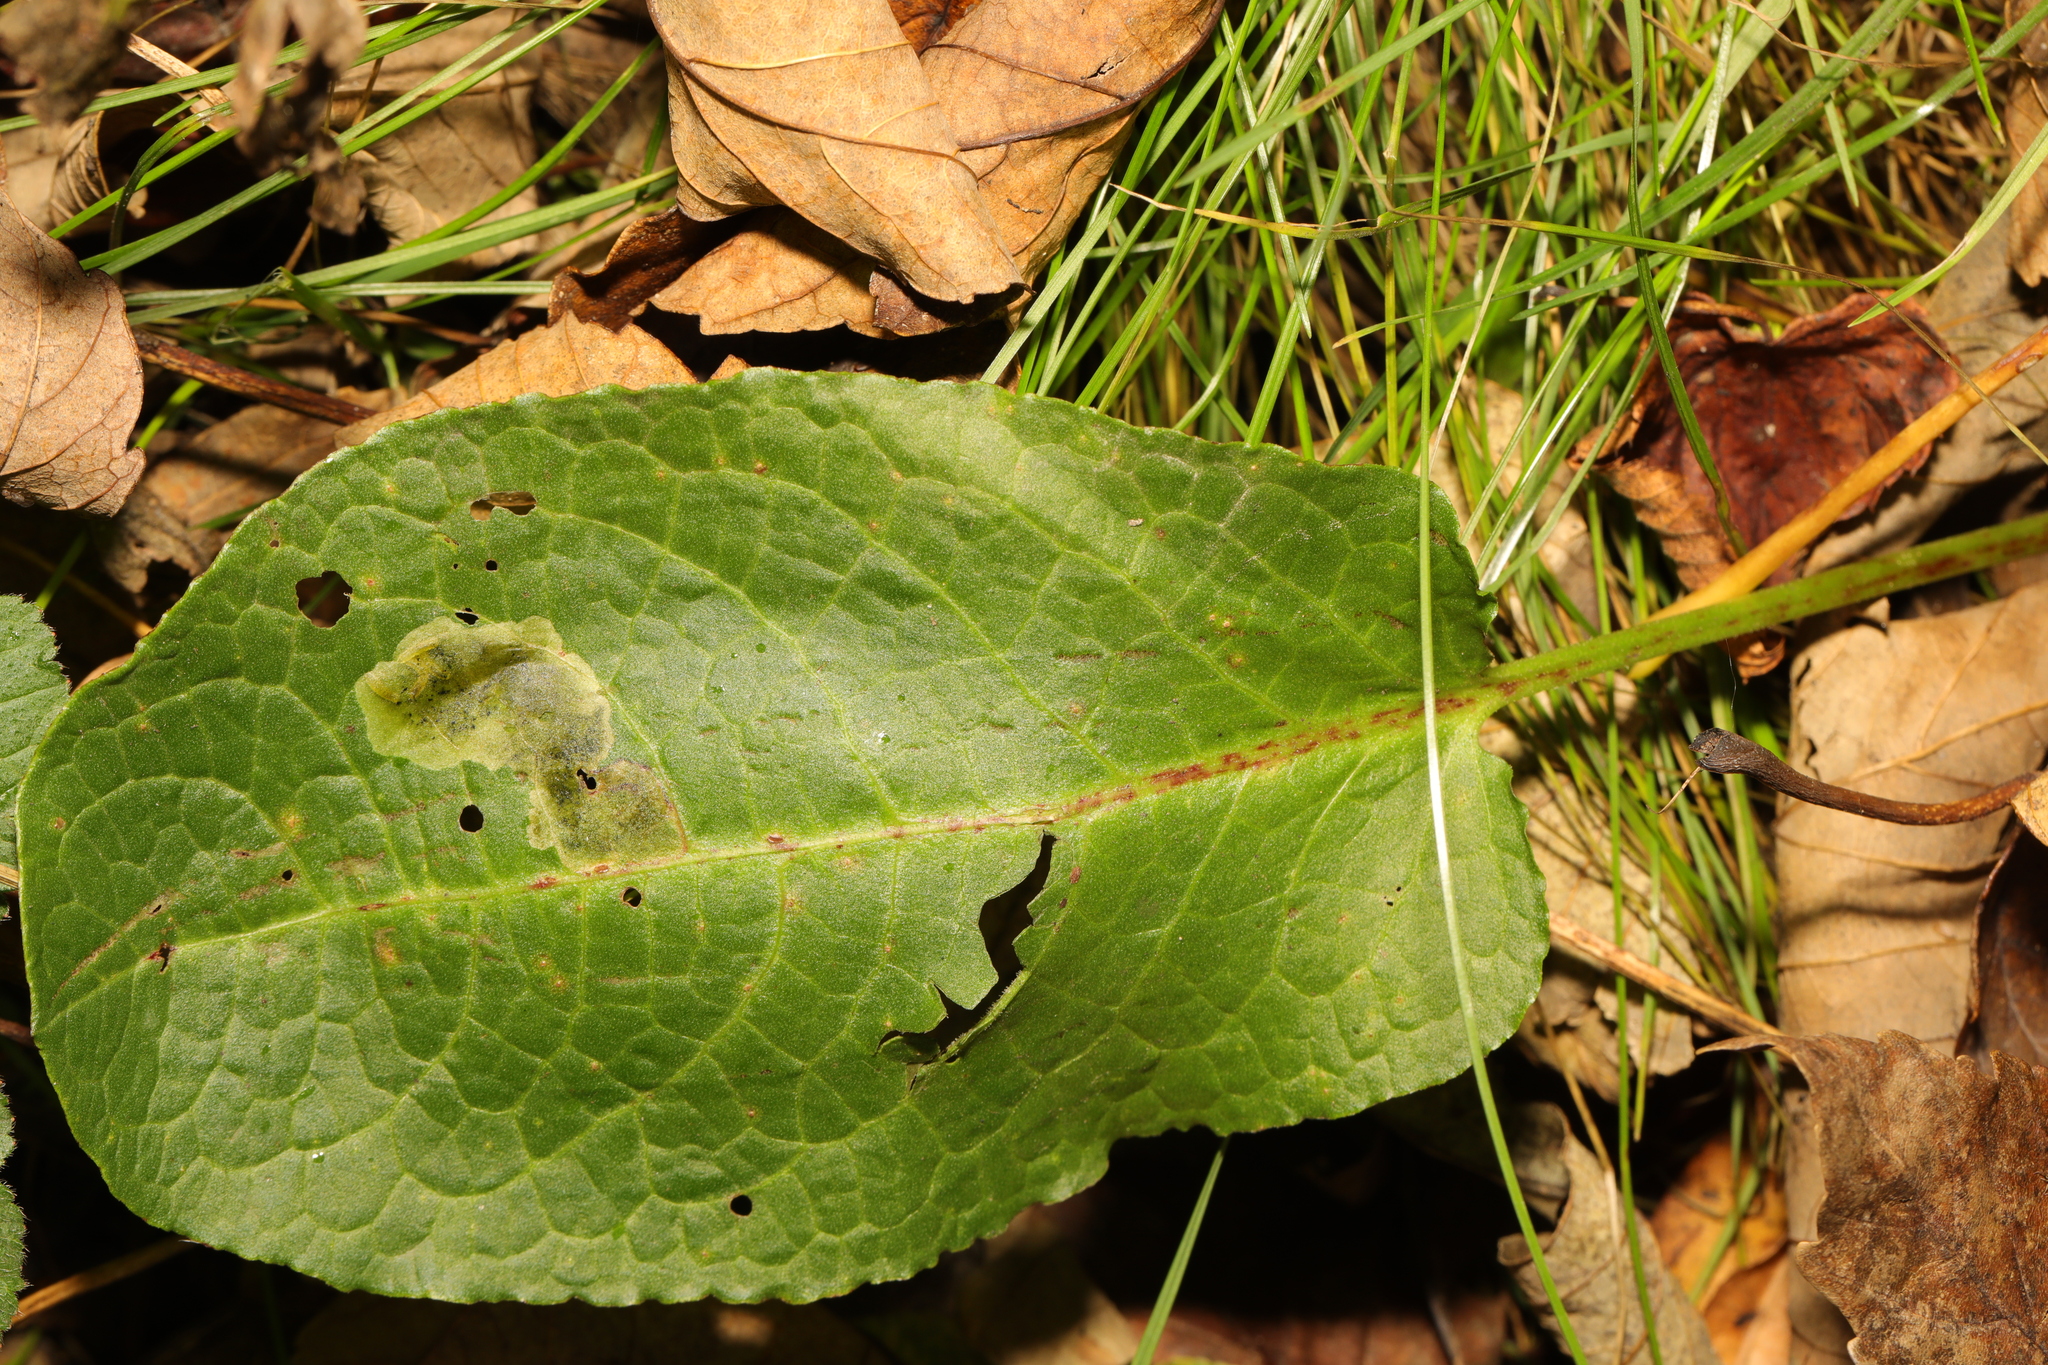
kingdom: Plantae
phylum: Tracheophyta
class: Magnoliopsida
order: Caryophyllales
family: Polygonaceae
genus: Rumex
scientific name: Rumex obtusifolius
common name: Bitter dock
